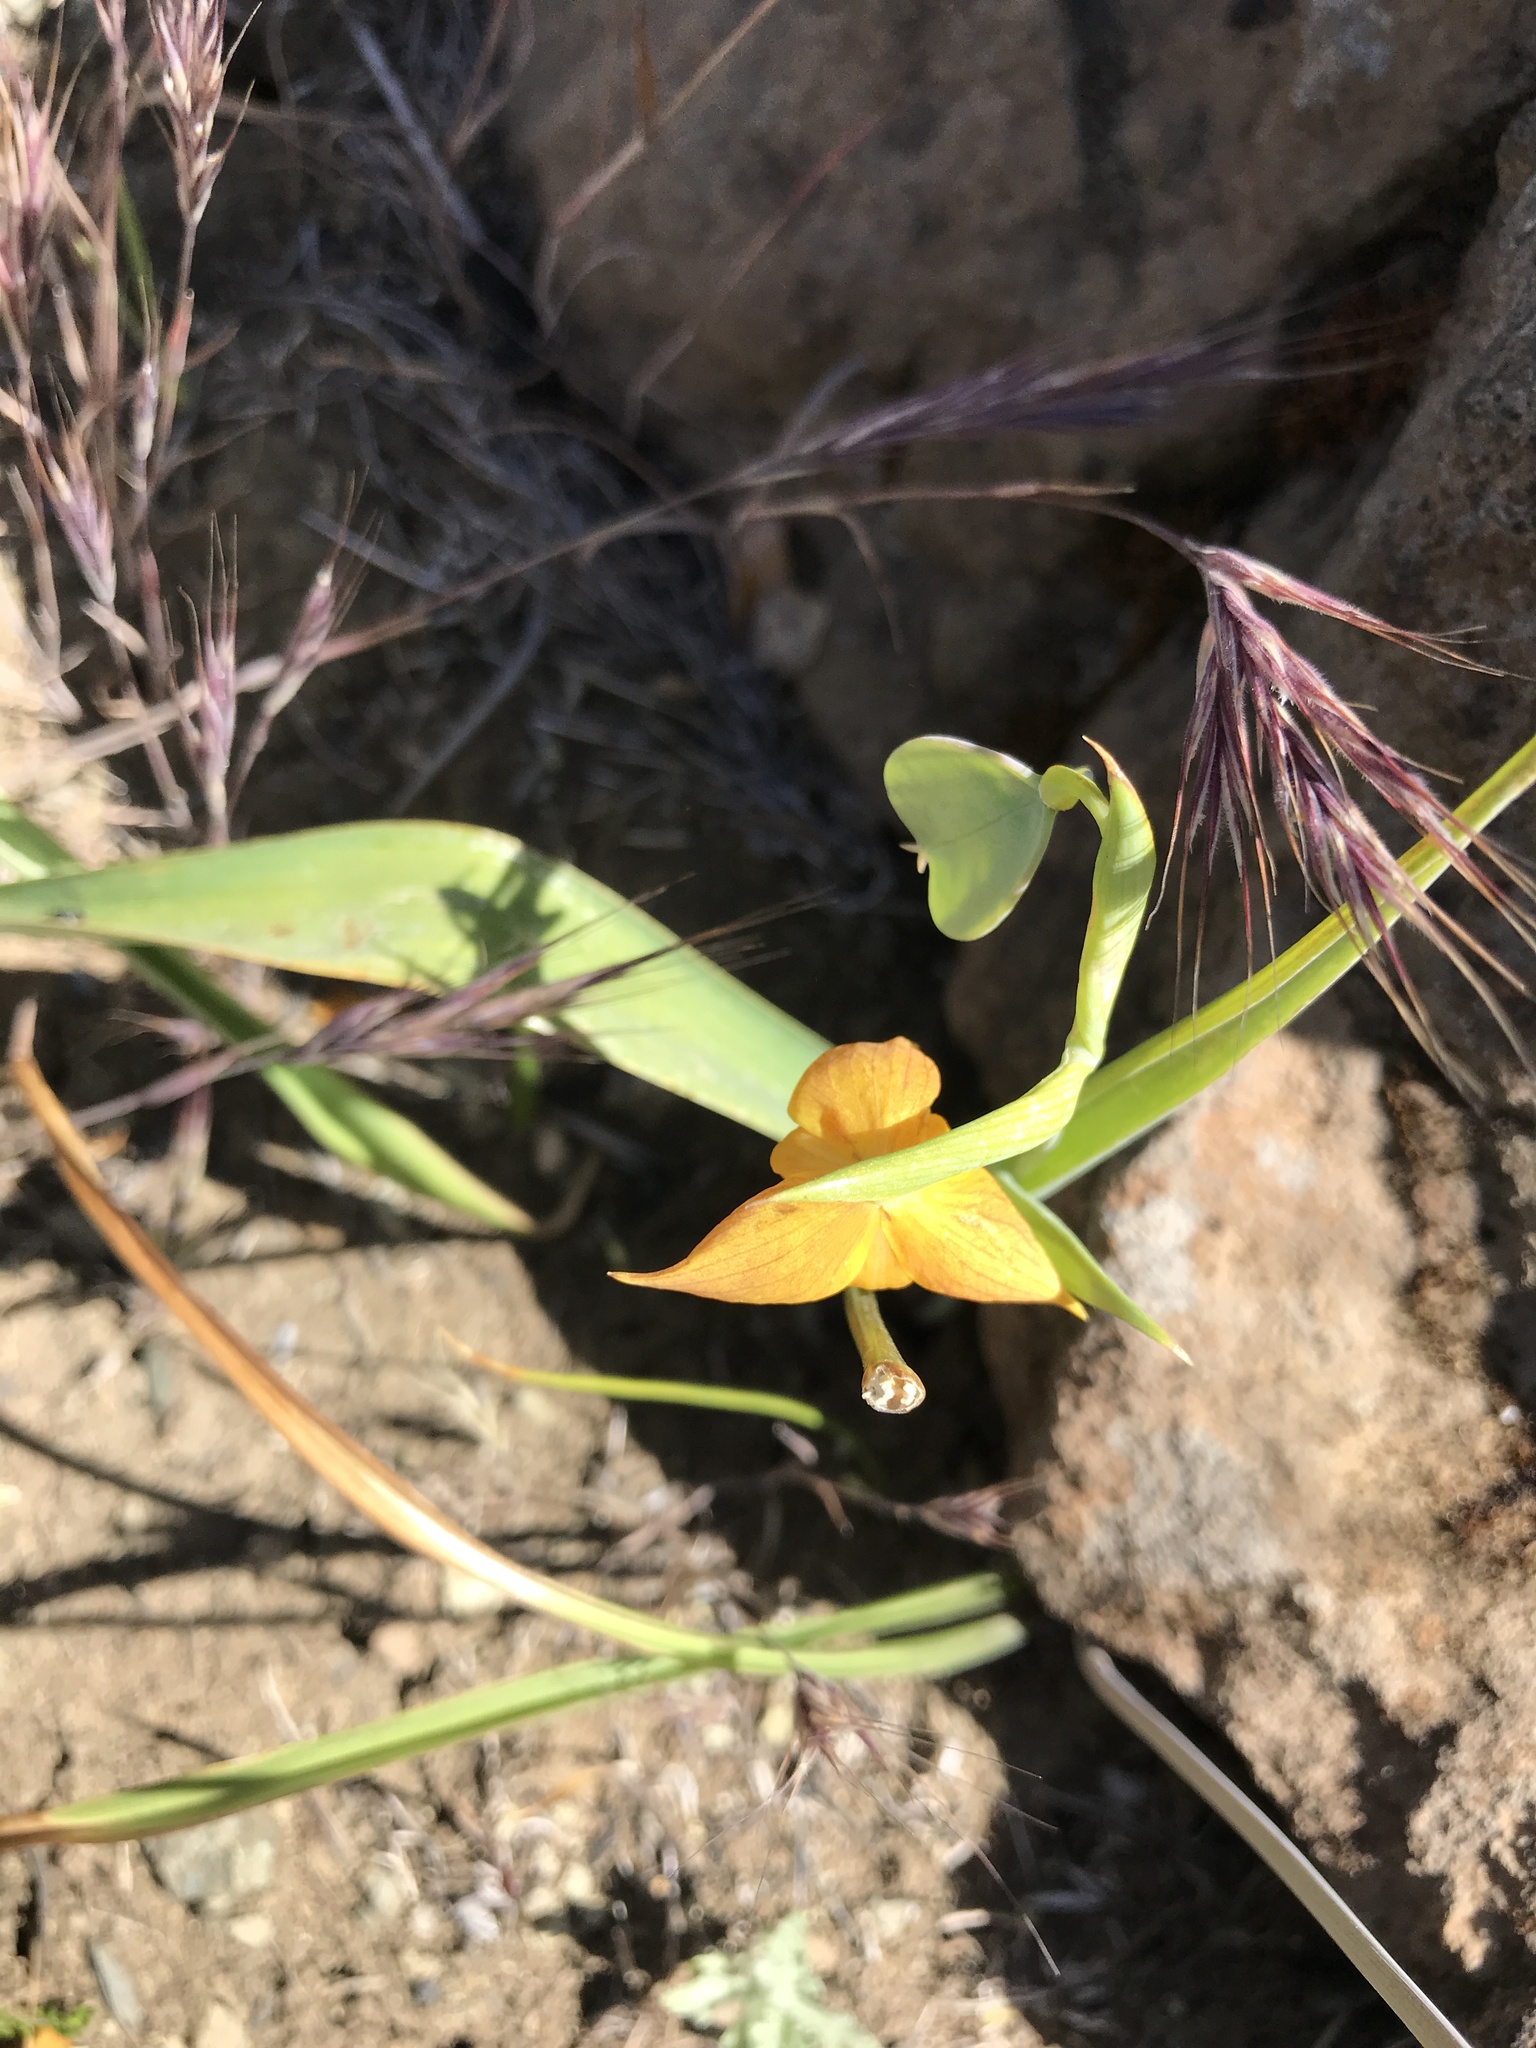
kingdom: Plantae
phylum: Tracheophyta
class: Liliopsida
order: Liliales
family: Liliaceae
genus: Calochortus
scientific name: Calochortus amabilis
